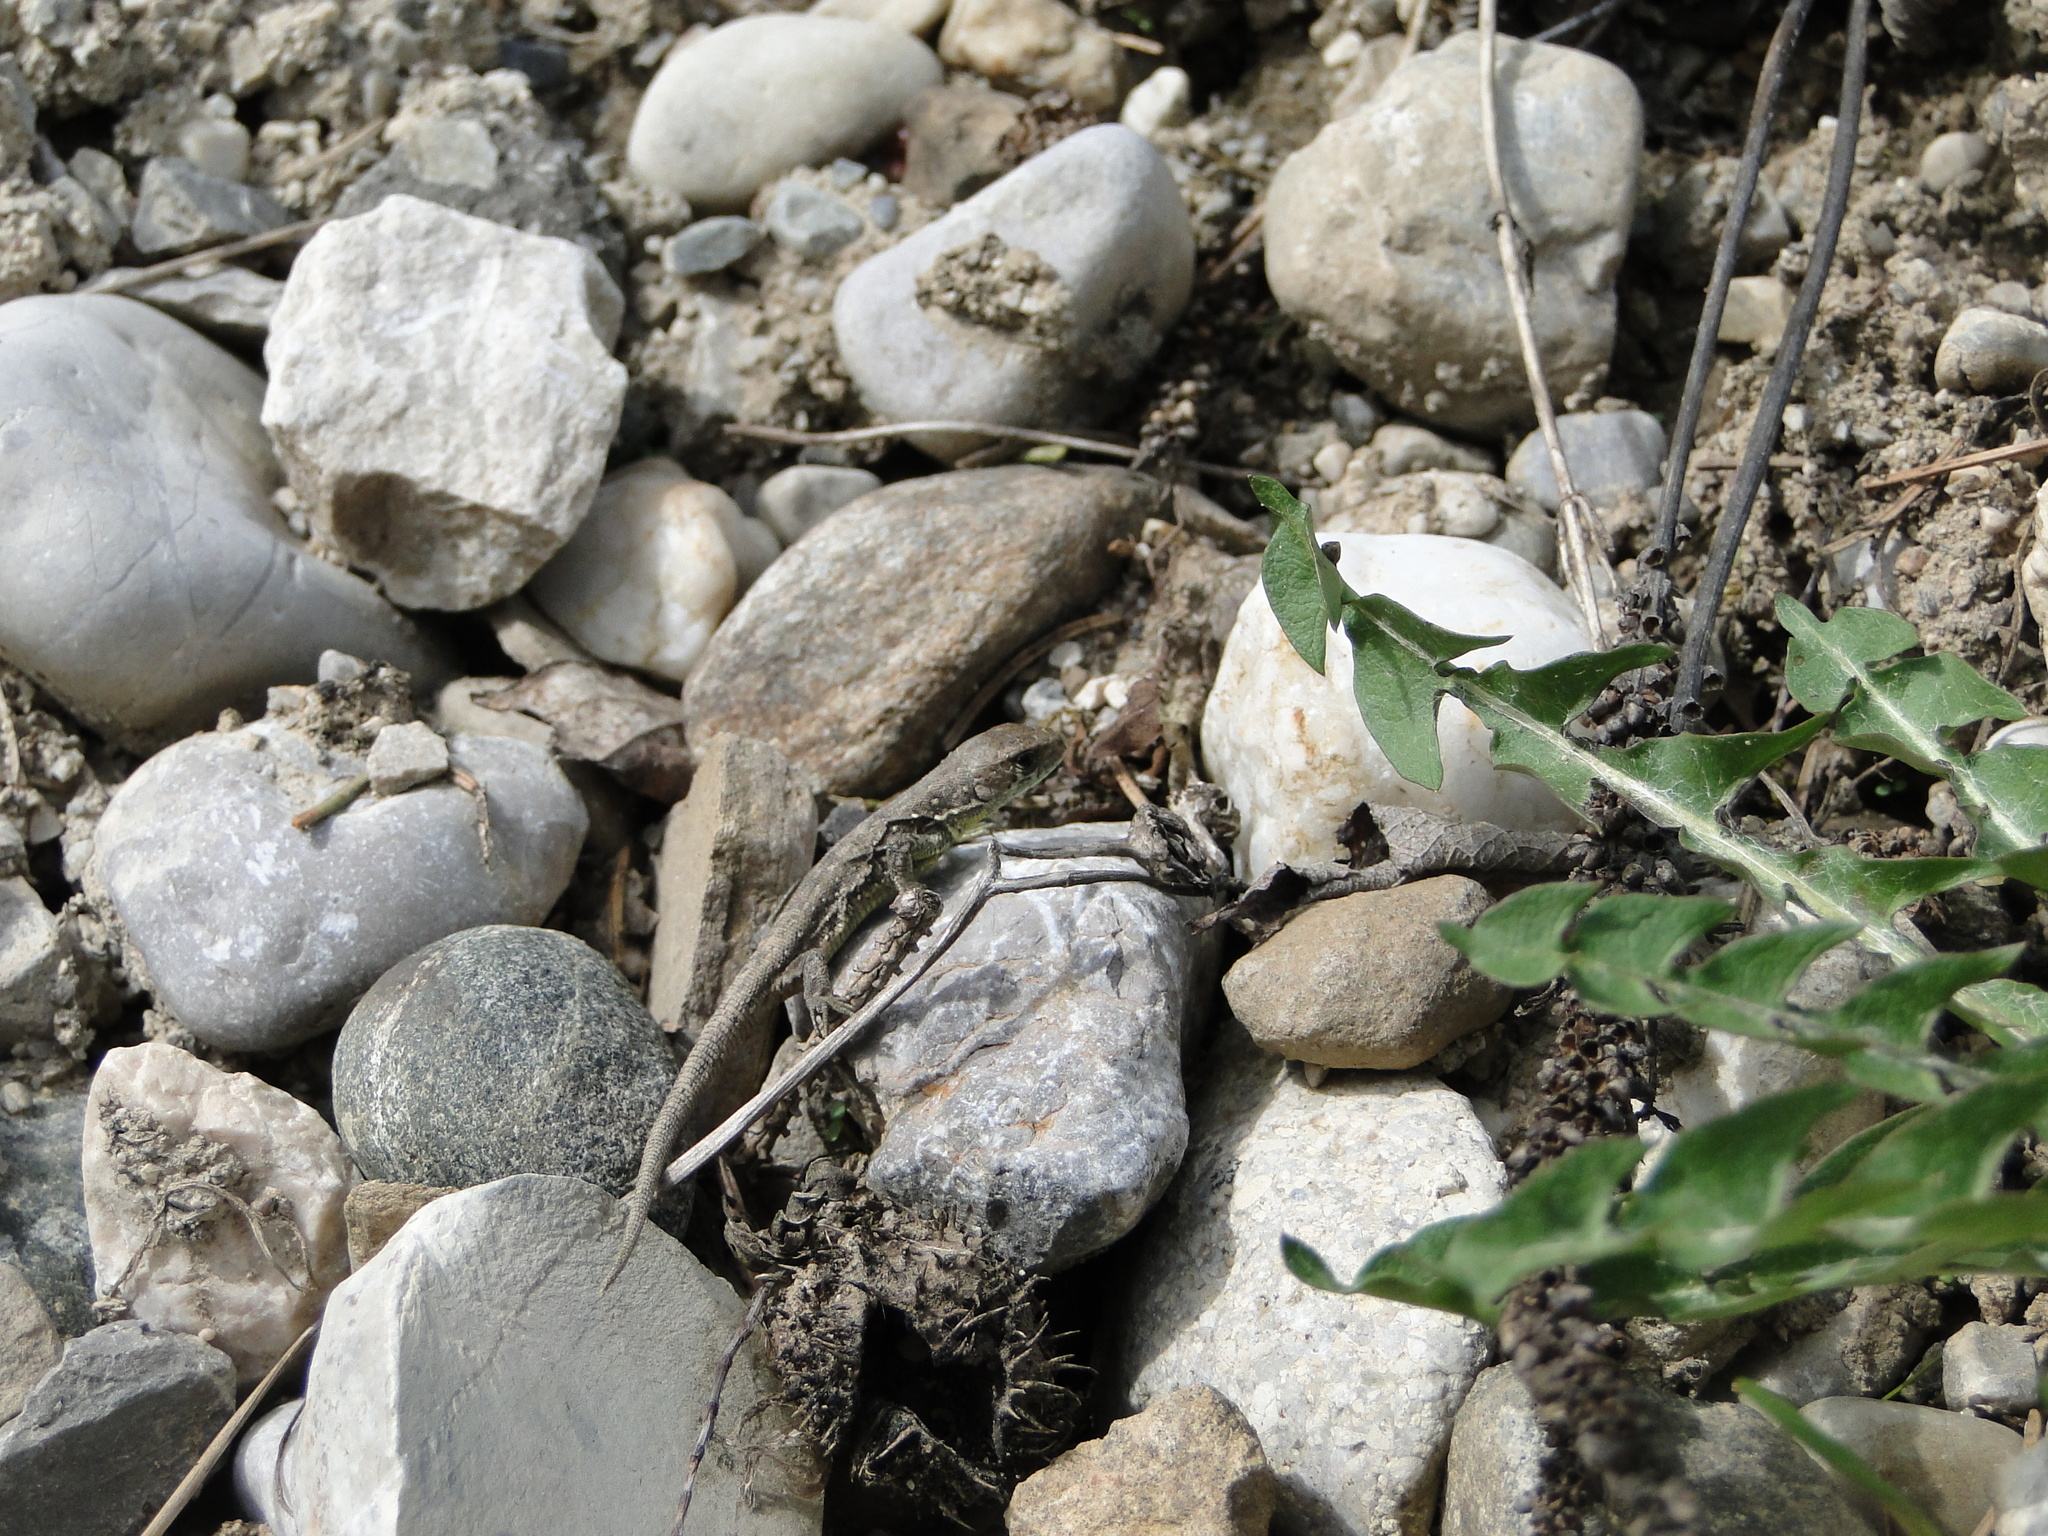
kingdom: Animalia
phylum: Chordata
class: Squamata
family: Lacertidae
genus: Lacerta
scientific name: Lacerta agilis
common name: Sand lizard
